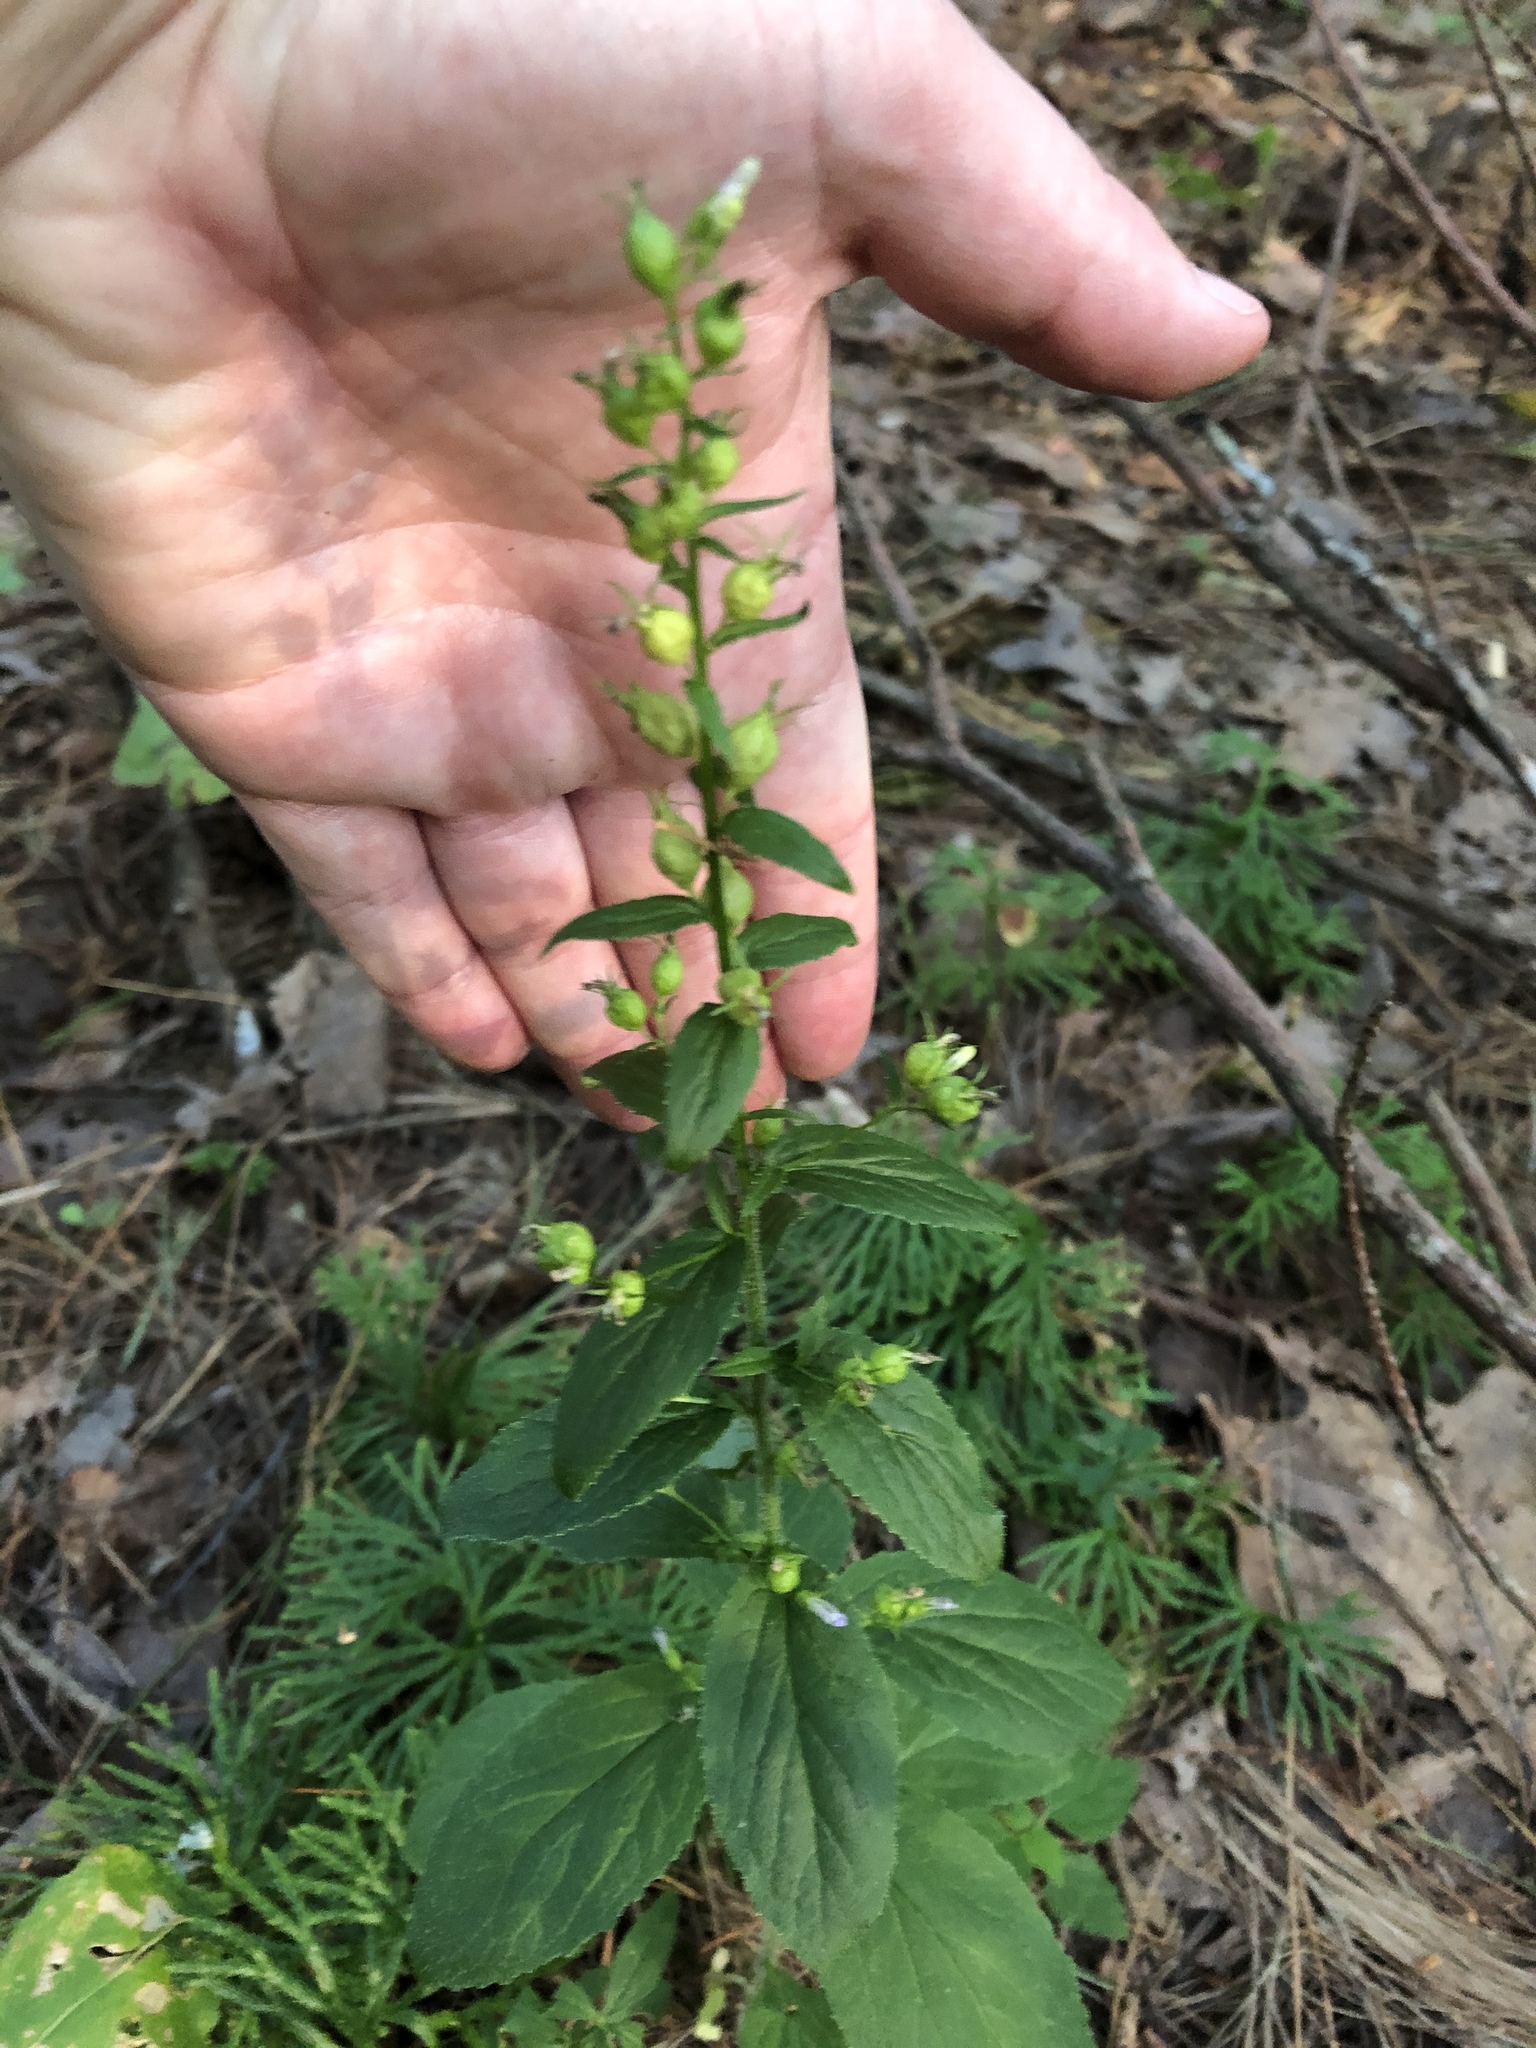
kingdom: Plantae
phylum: Tracheophyta
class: Magnoliopsida
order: Asterales
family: Campanulaceae
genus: Lobelia
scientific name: Lobelia inflata
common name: Indian tobacco
